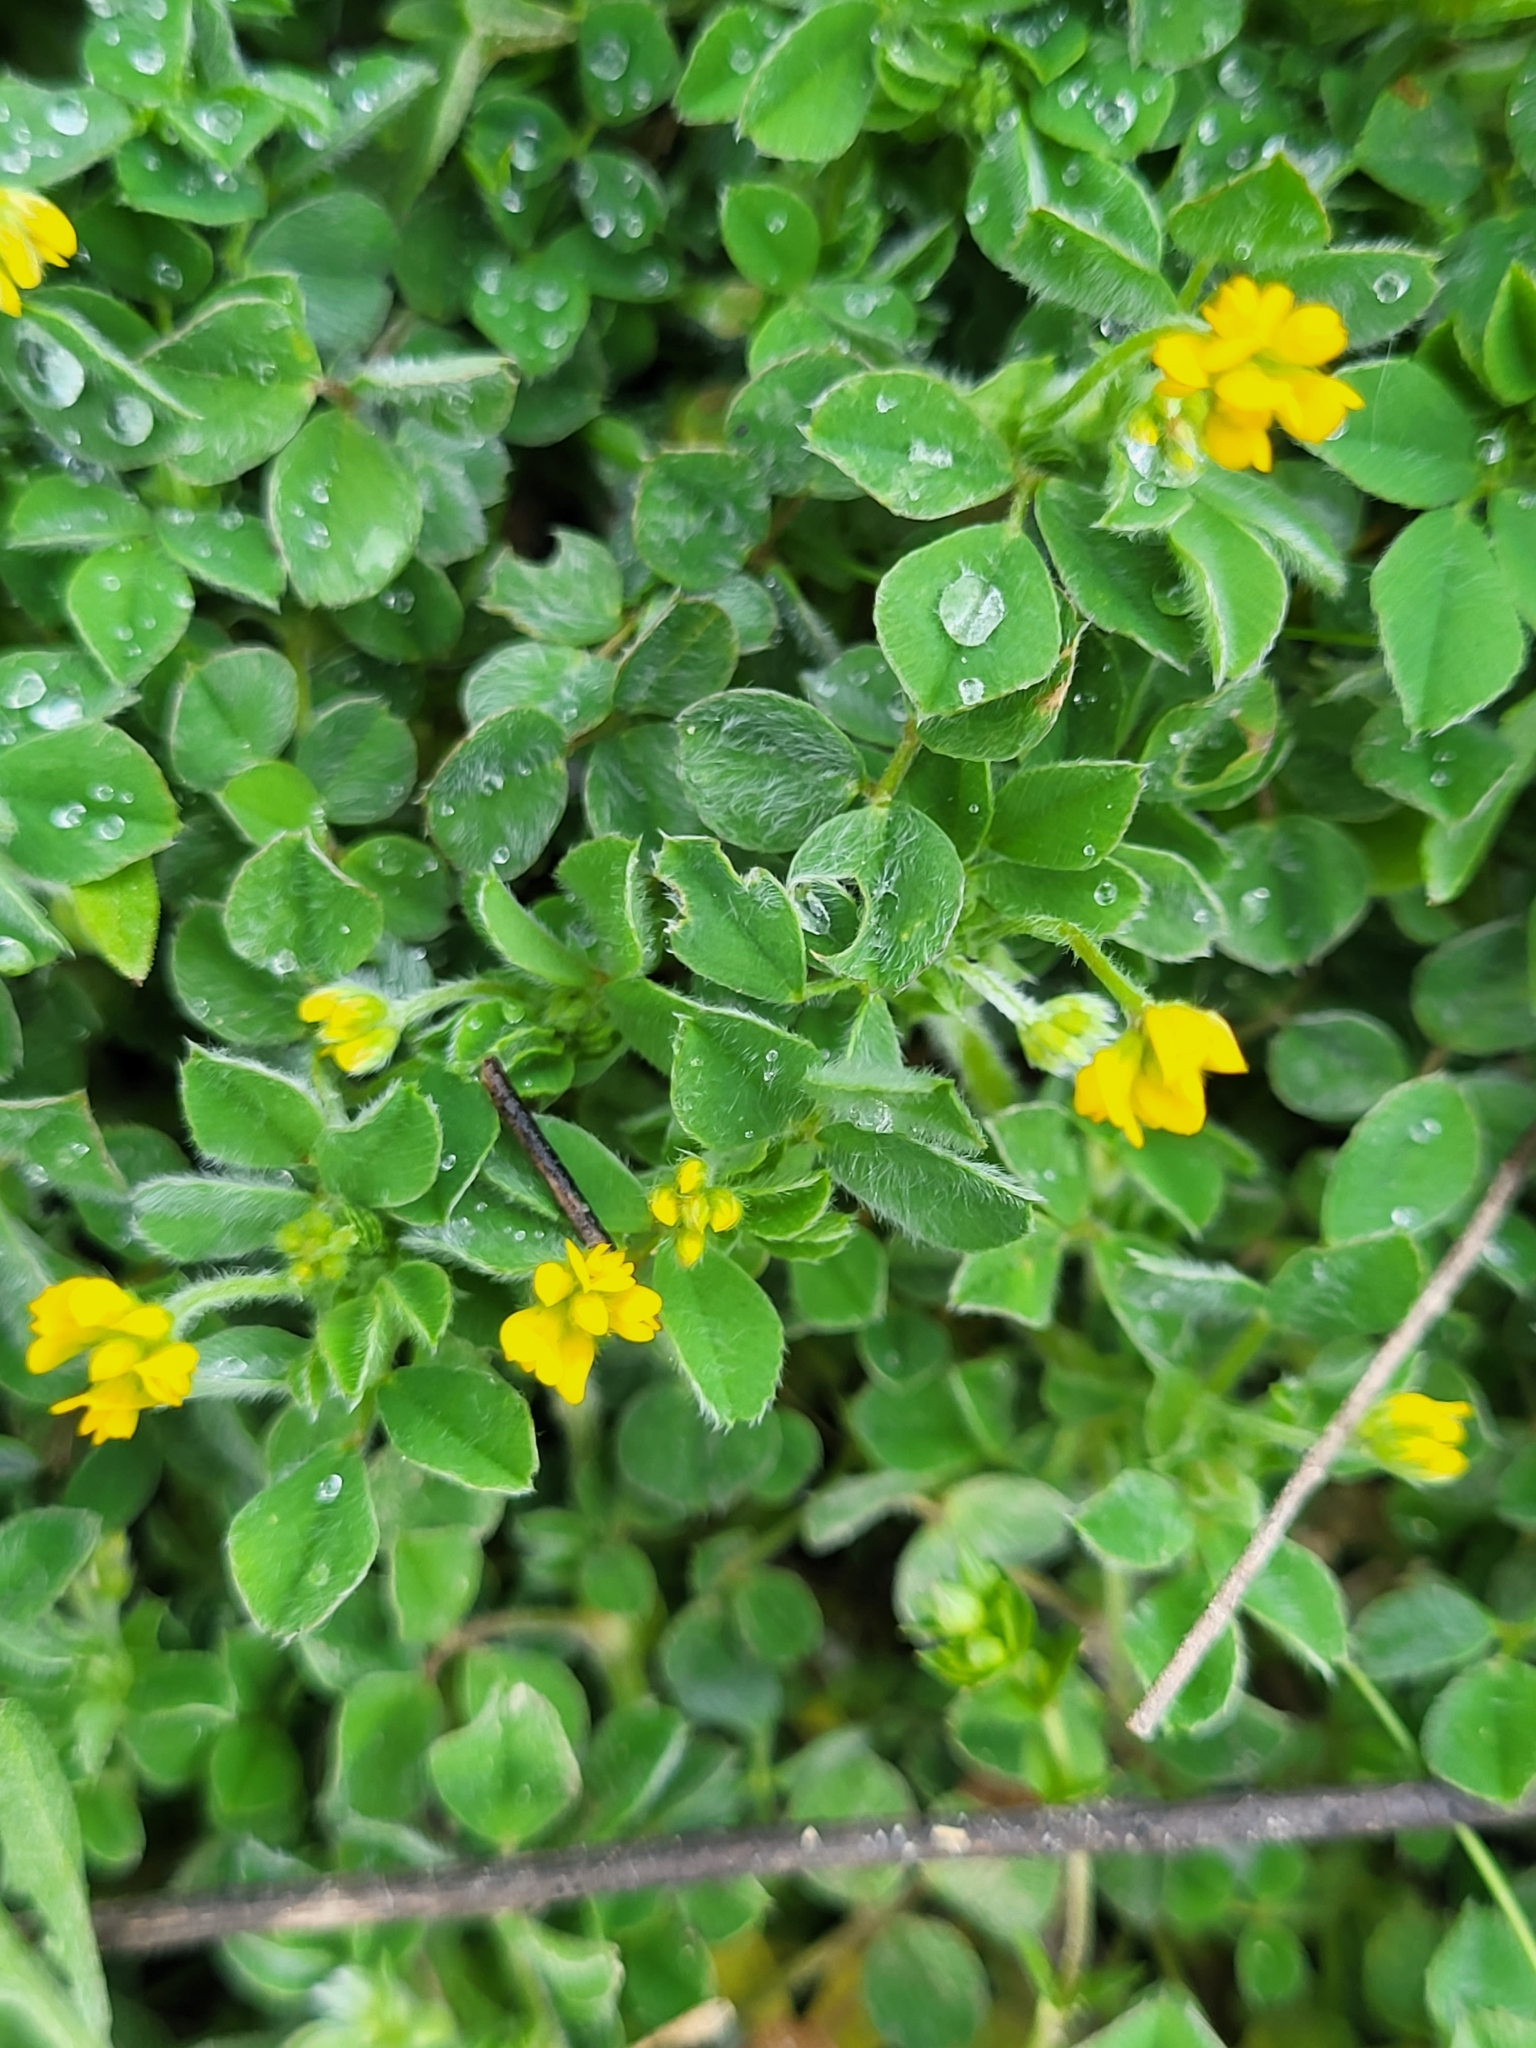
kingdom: Plantae
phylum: Tracheophyta
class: Magnoliopsida
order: Fabales
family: Fabaceae
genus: Medicago
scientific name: Medicago minima
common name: Little bur-clover
